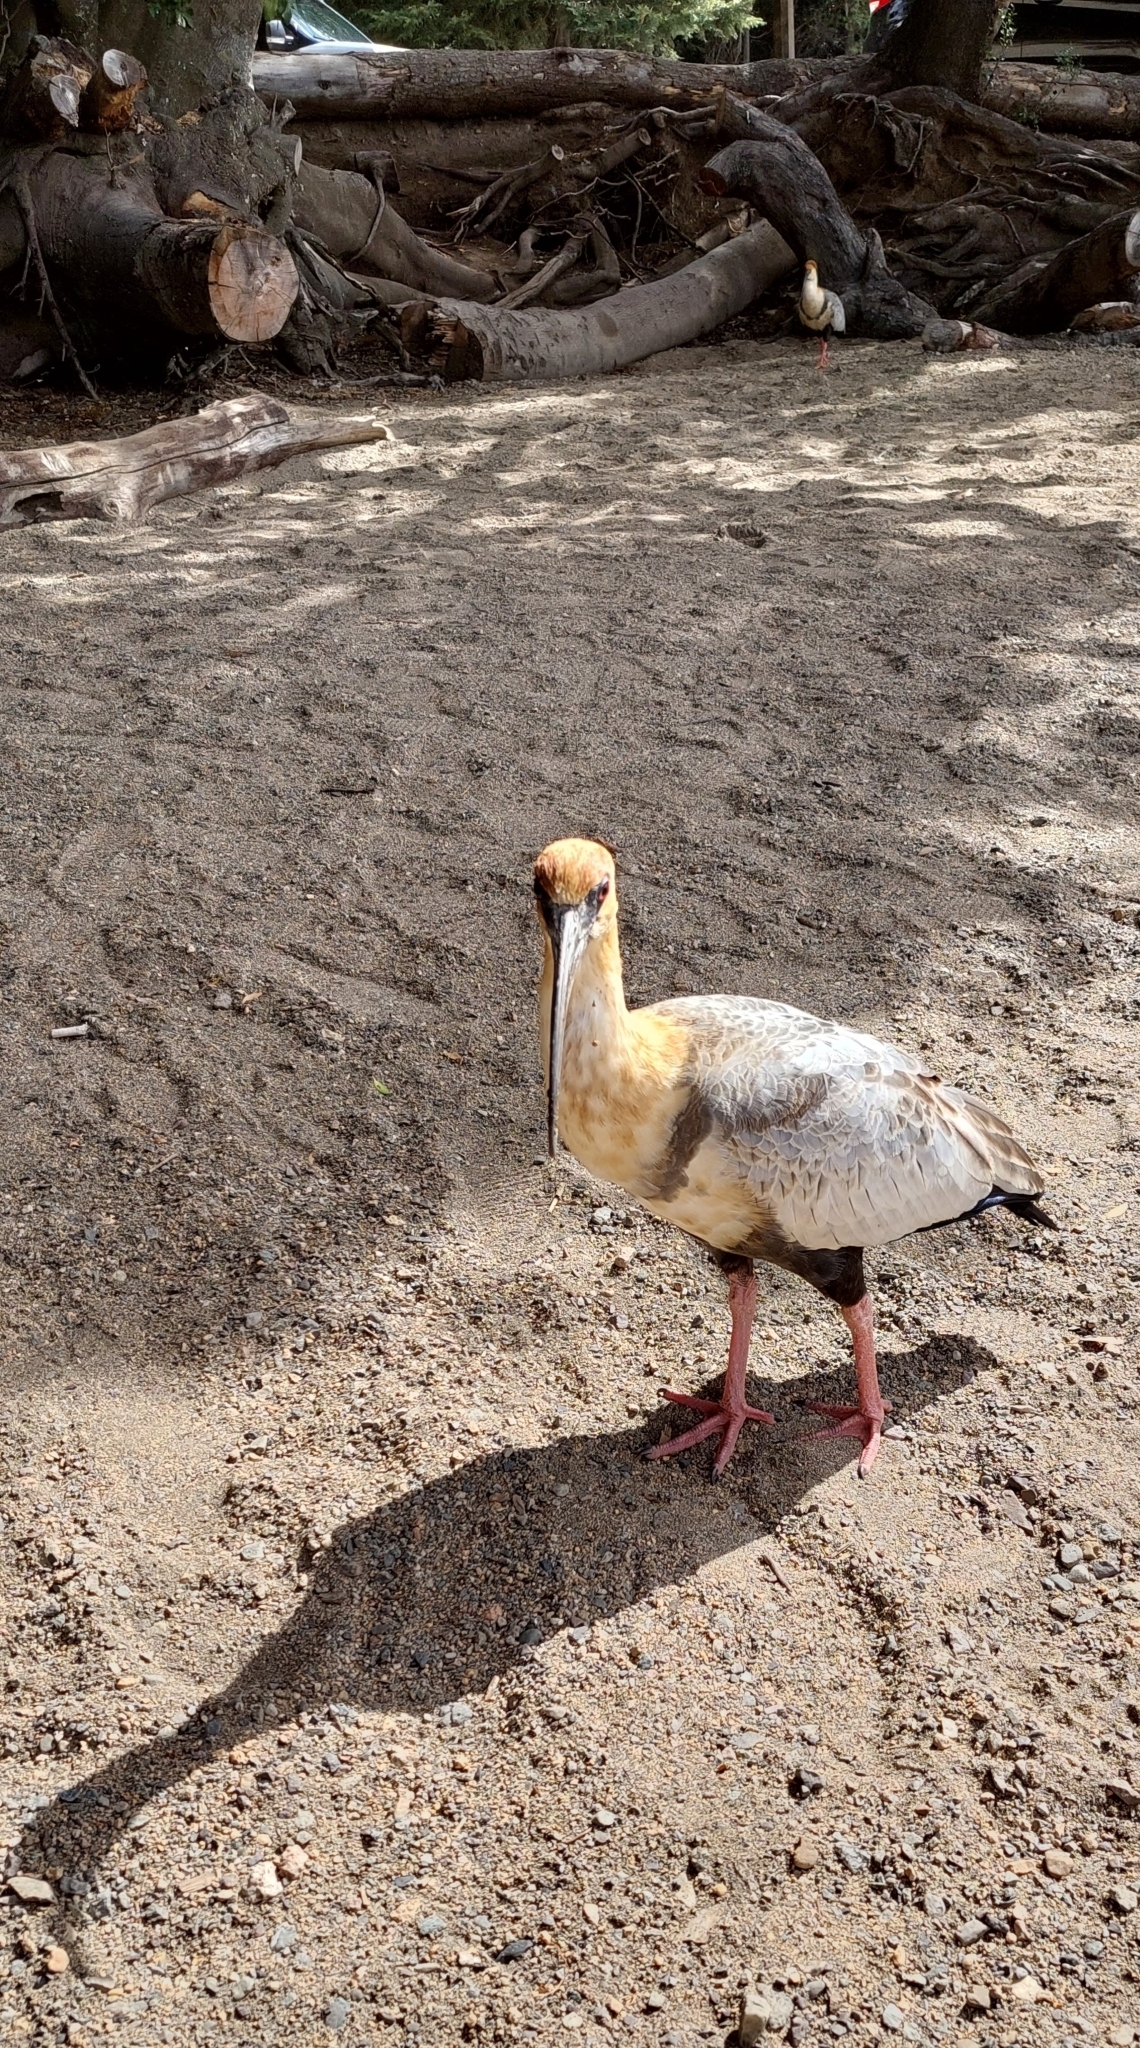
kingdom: Animalia
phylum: Chordata
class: Aves
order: Pelecaniformes
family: Threskiornithidae
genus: Theristicus
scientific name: Theristicus melanopis
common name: Black-faced ibis
